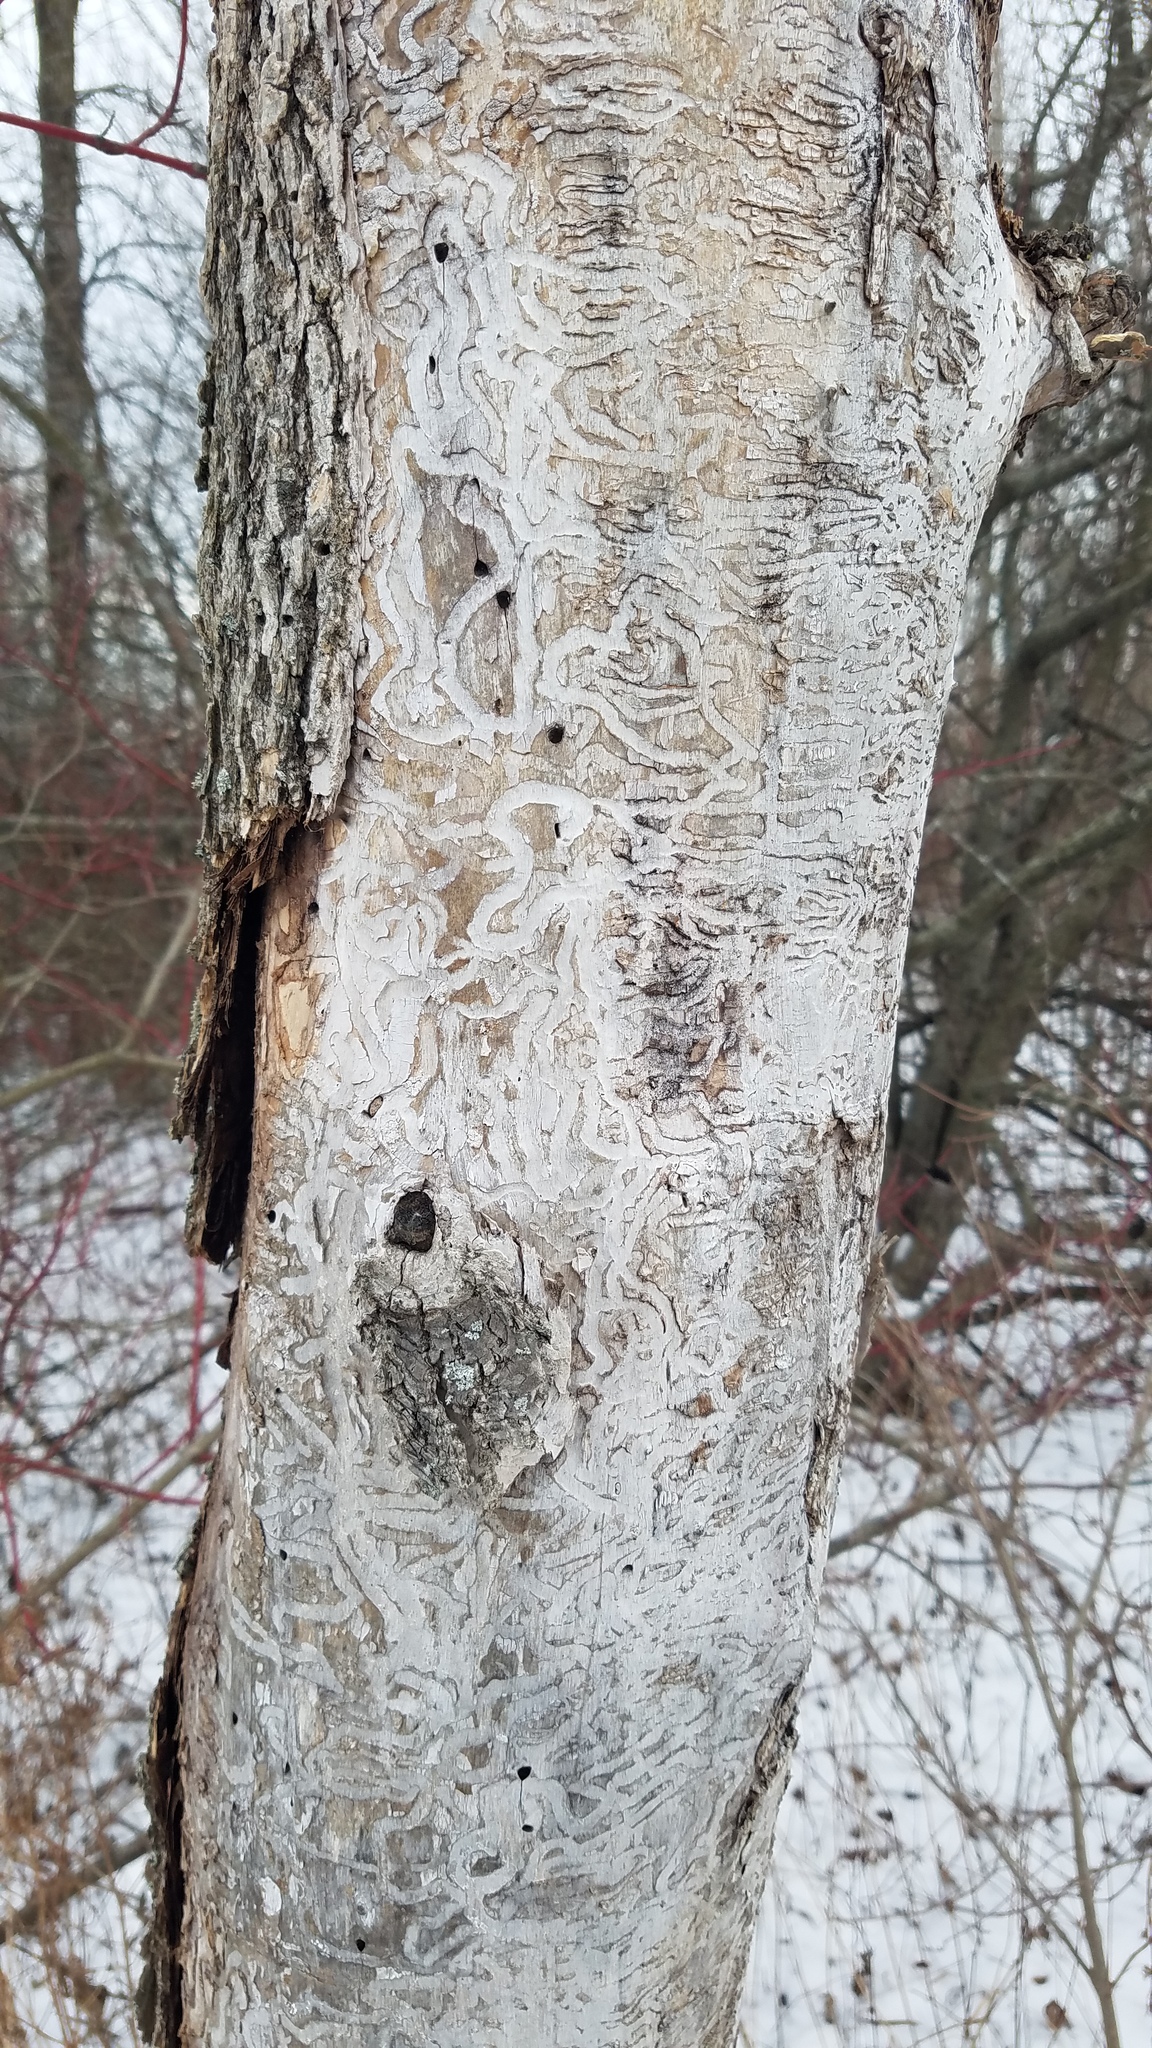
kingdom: Animalia
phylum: Arthropoda
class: Insecta
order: Coleoptera
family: Buprestidae
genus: Agrilus
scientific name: Agrilus planipennis
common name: Emerald ash borer
